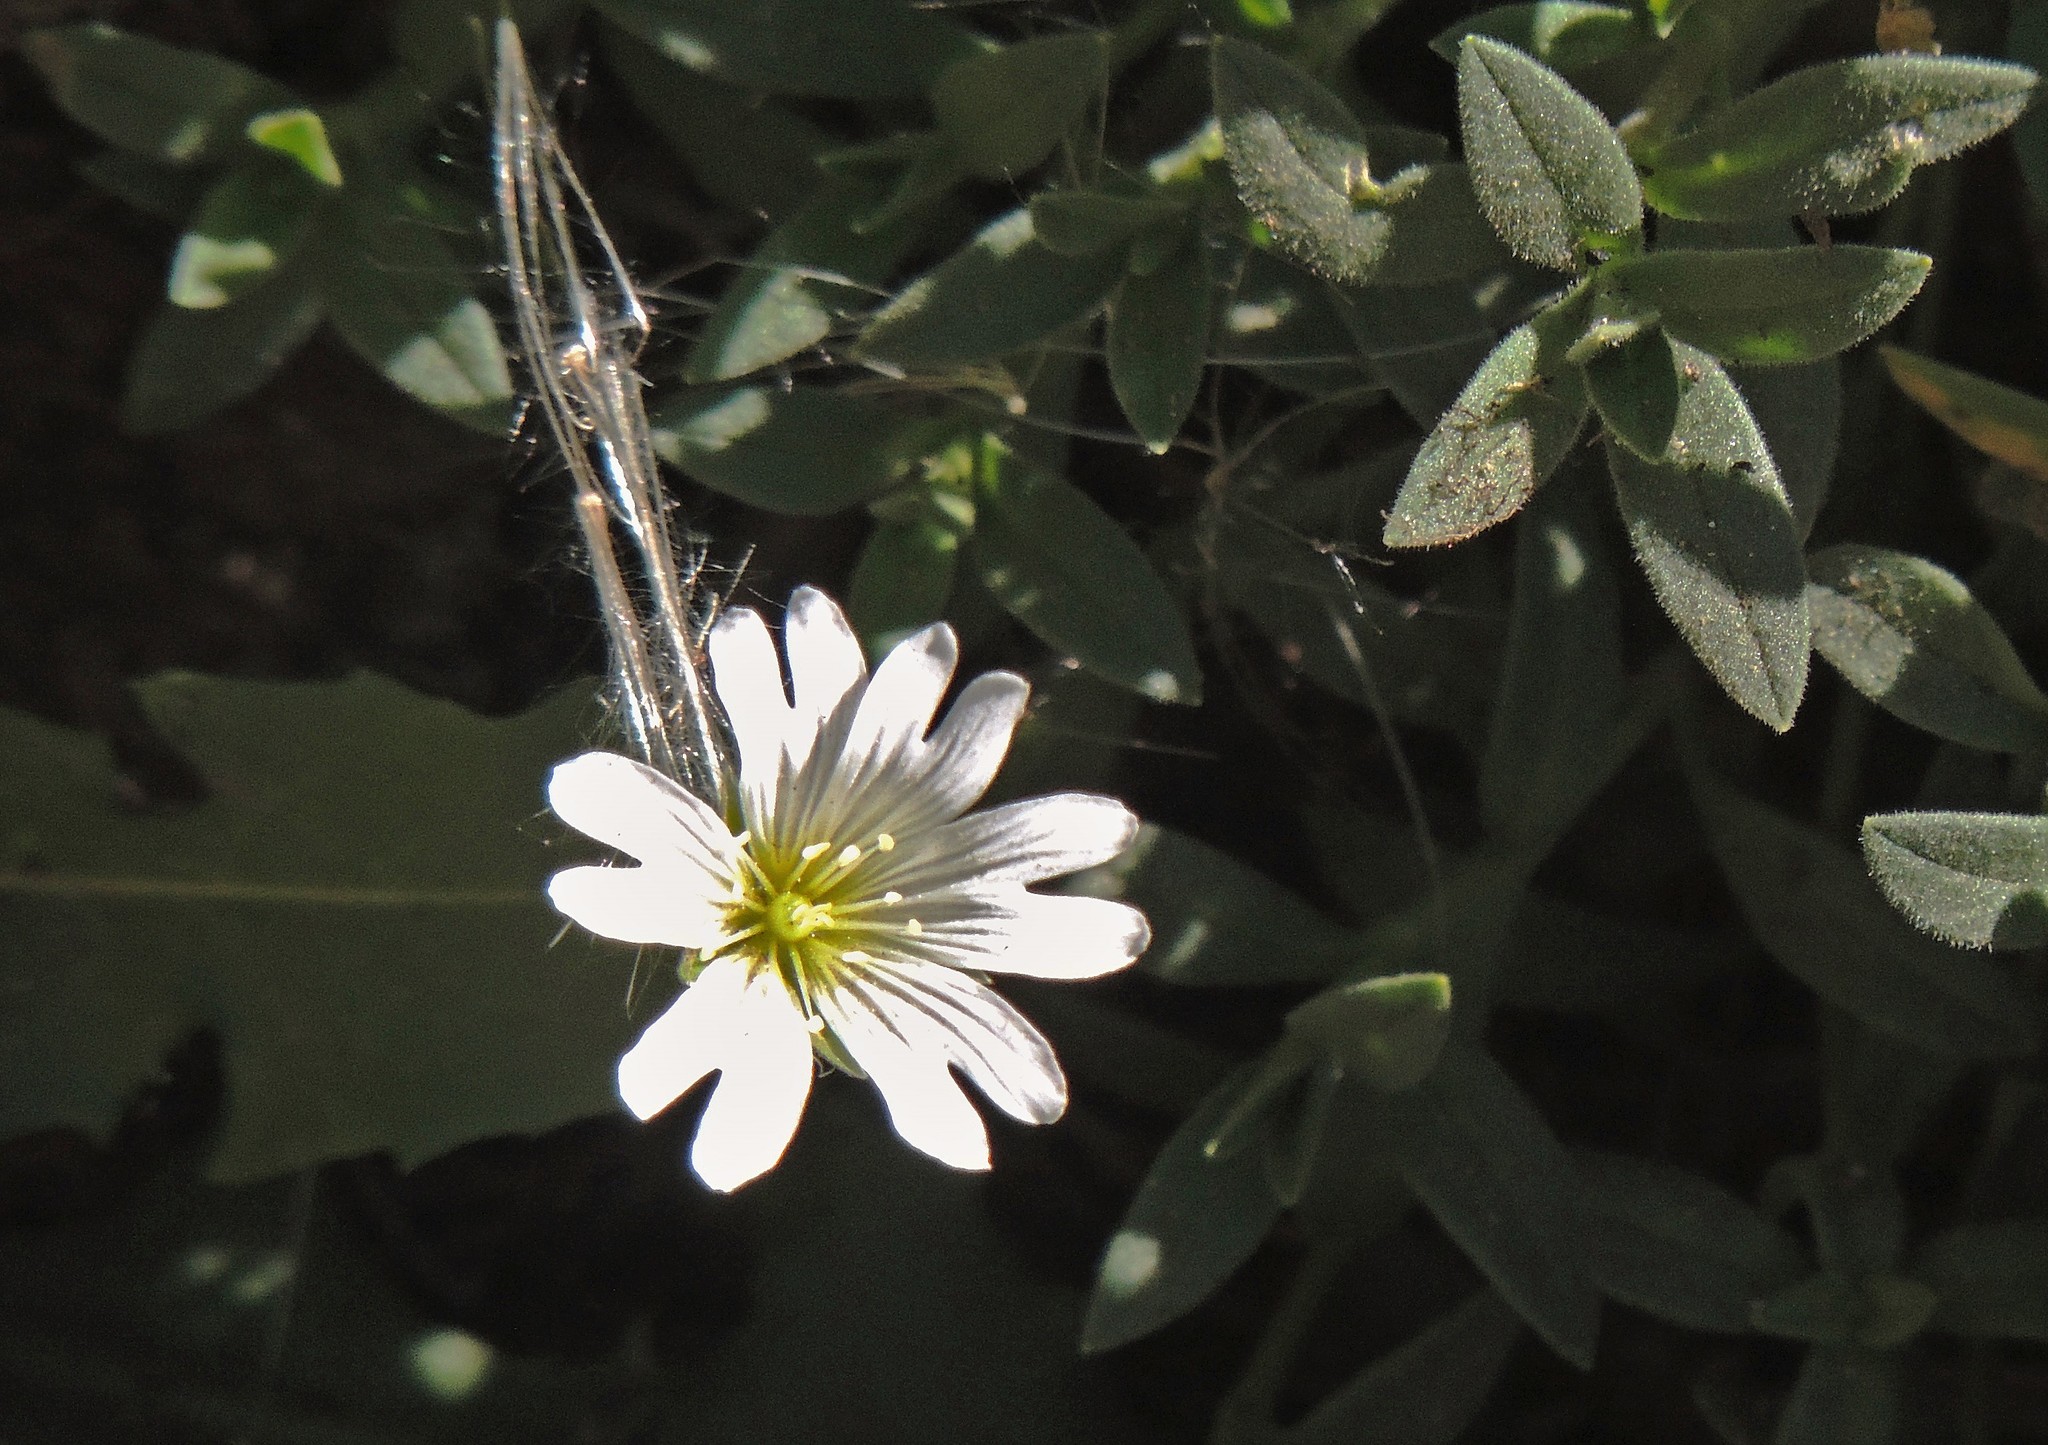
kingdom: Plantae
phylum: Tracheophyta
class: Magnoliopsida
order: Caryophyllales
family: Caryophyllaceae
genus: Cerastium
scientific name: Cerastium arvense
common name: Field mouse-ear
